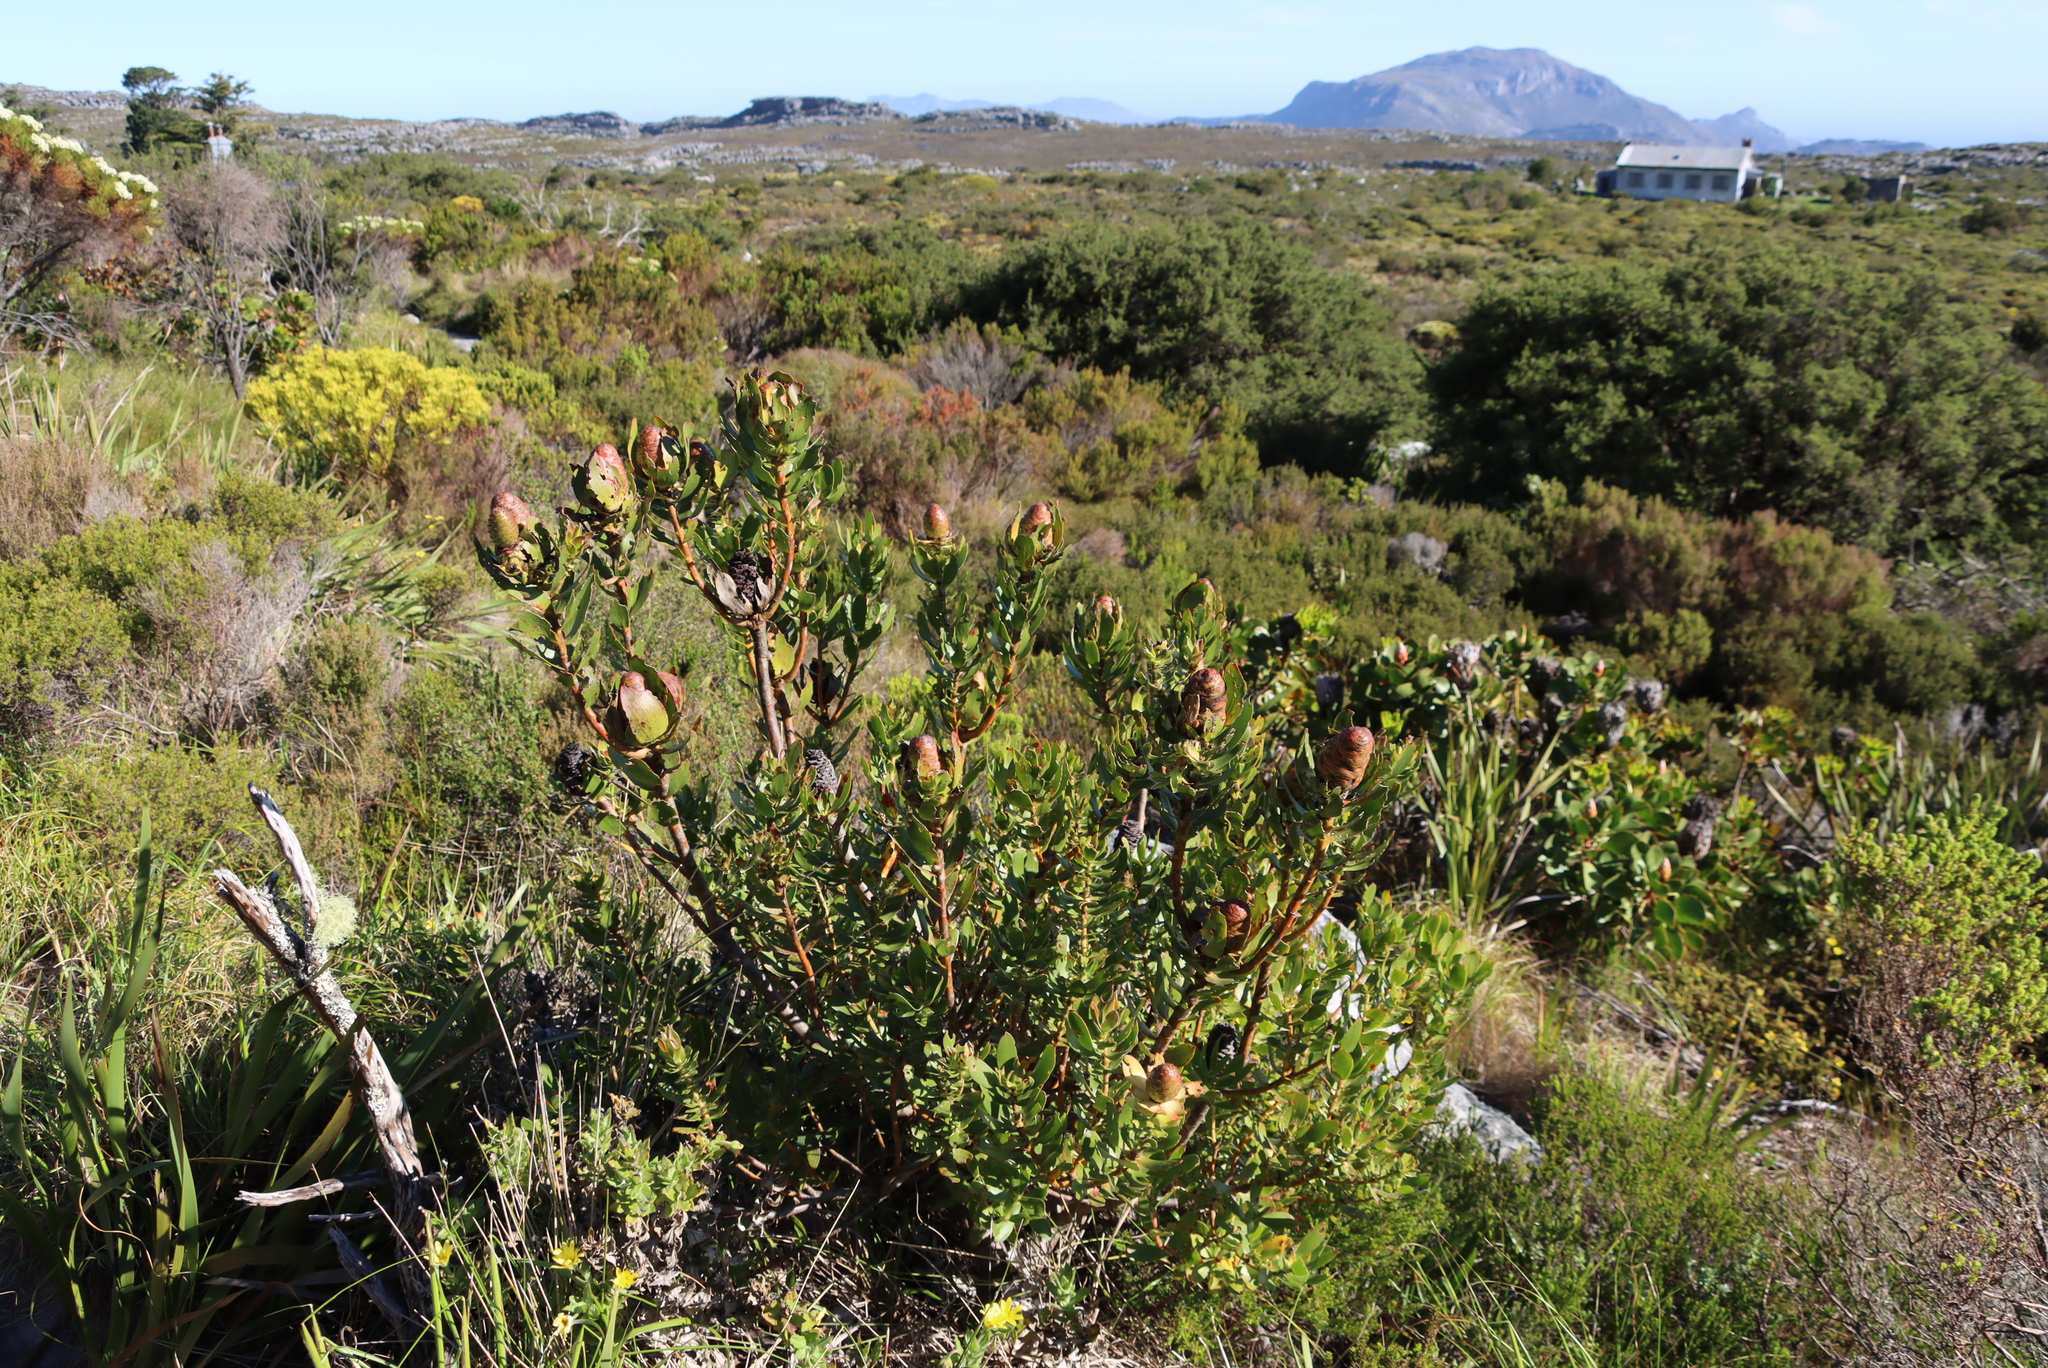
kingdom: Plantae
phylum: Tracheophyta
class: Magnoliopsida
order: Proteales
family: Proteaceae
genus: Leucadendron
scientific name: Leucadendron strobilinum
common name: Mountain rose
